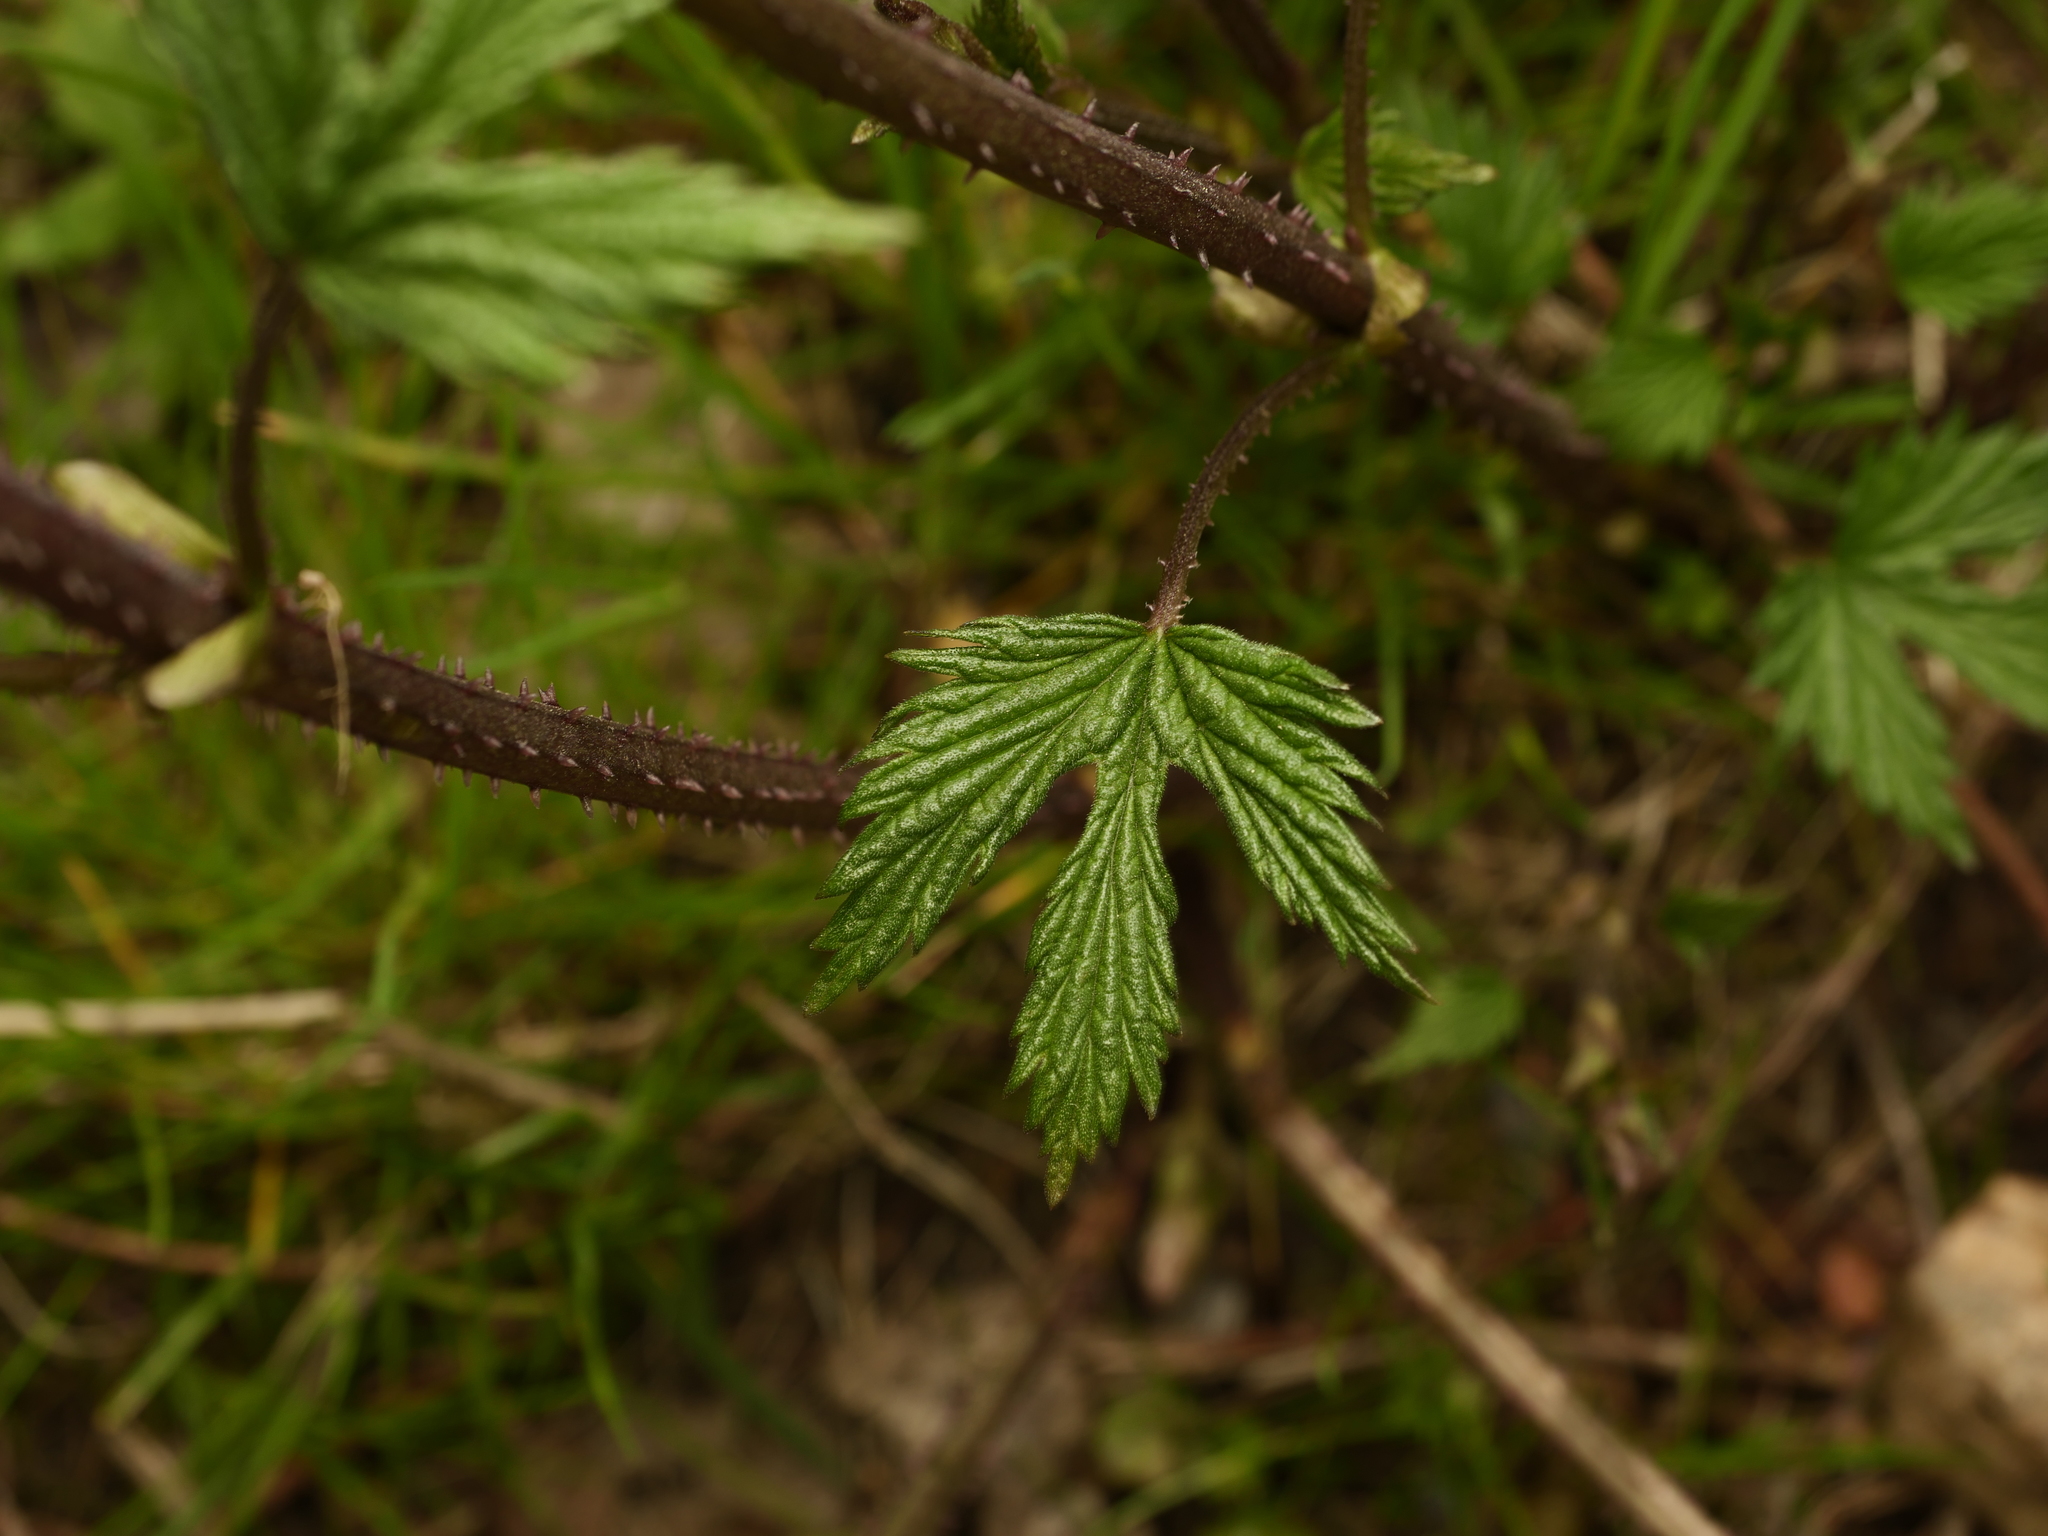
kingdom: Plantae
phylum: Tracheophyta
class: Magnoliopsida
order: Rosales
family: Cannabaceae
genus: Humulus
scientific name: Humulus lupulus
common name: Hop
